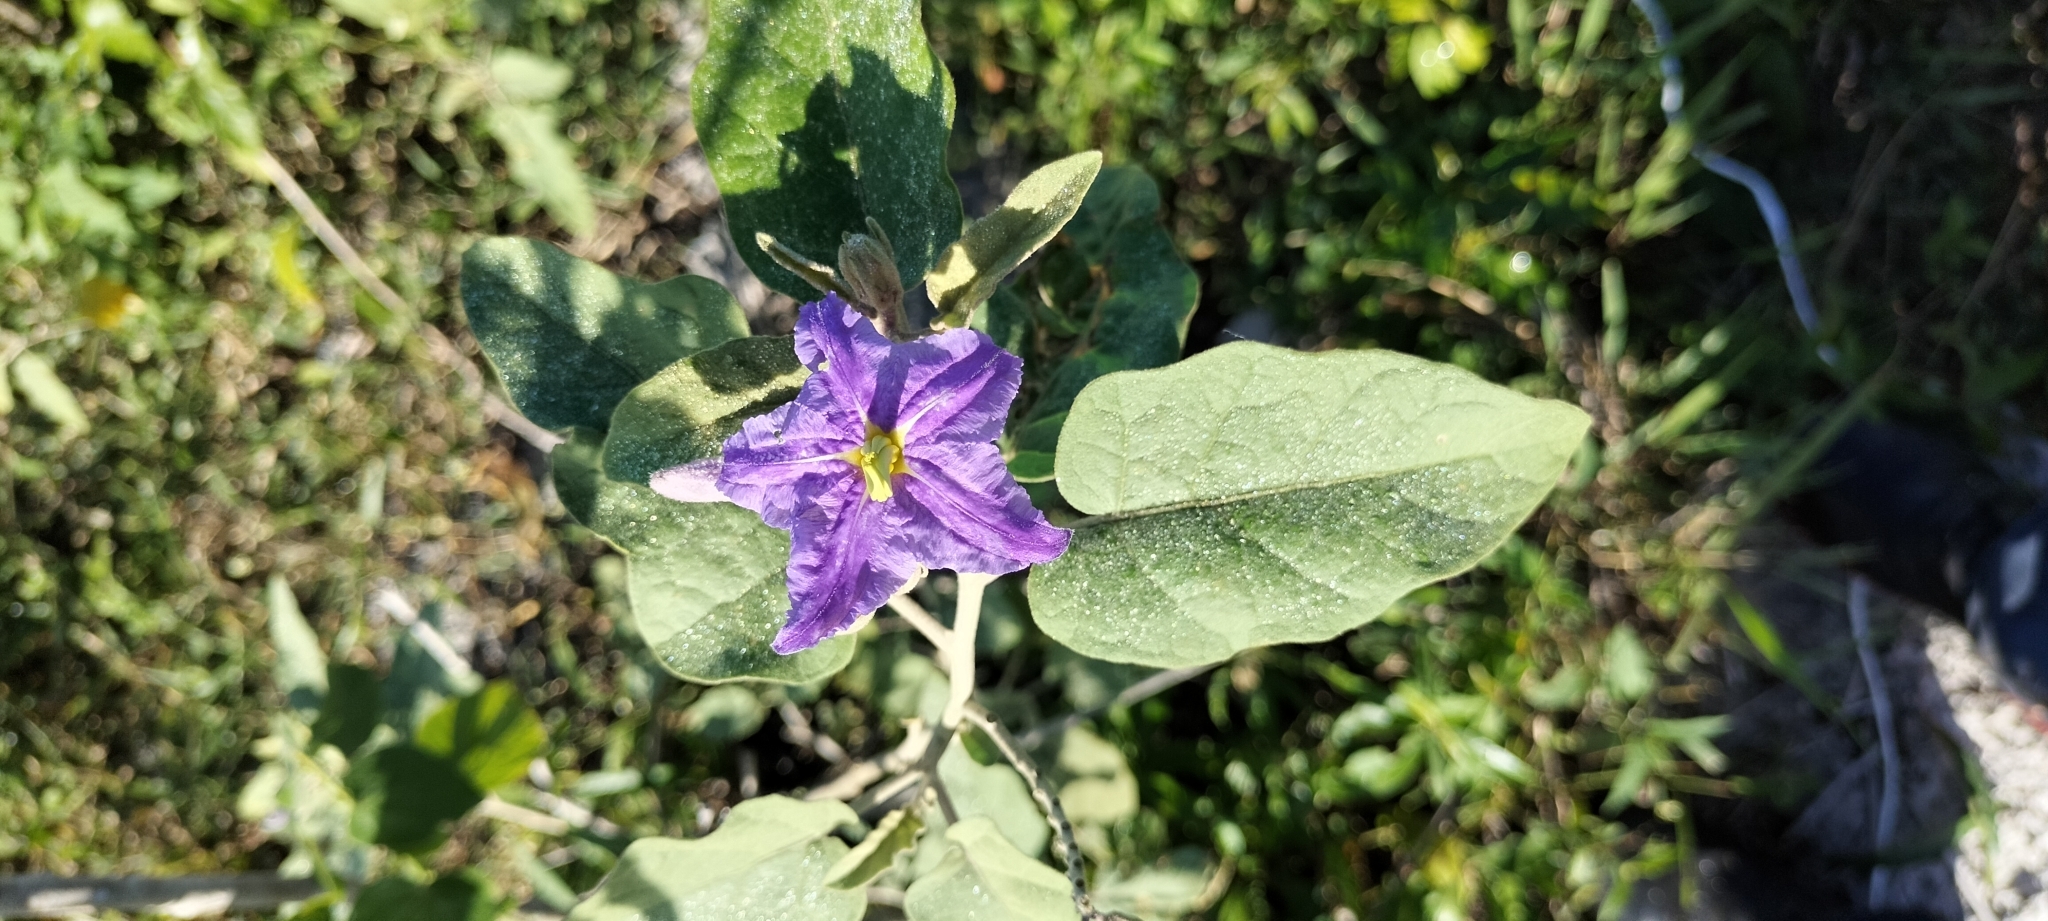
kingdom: Plantae
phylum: Tracheophyta
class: Magnoliopsida
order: Solanales
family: Solanaceae
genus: Solanum
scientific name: Solanum houstonii
